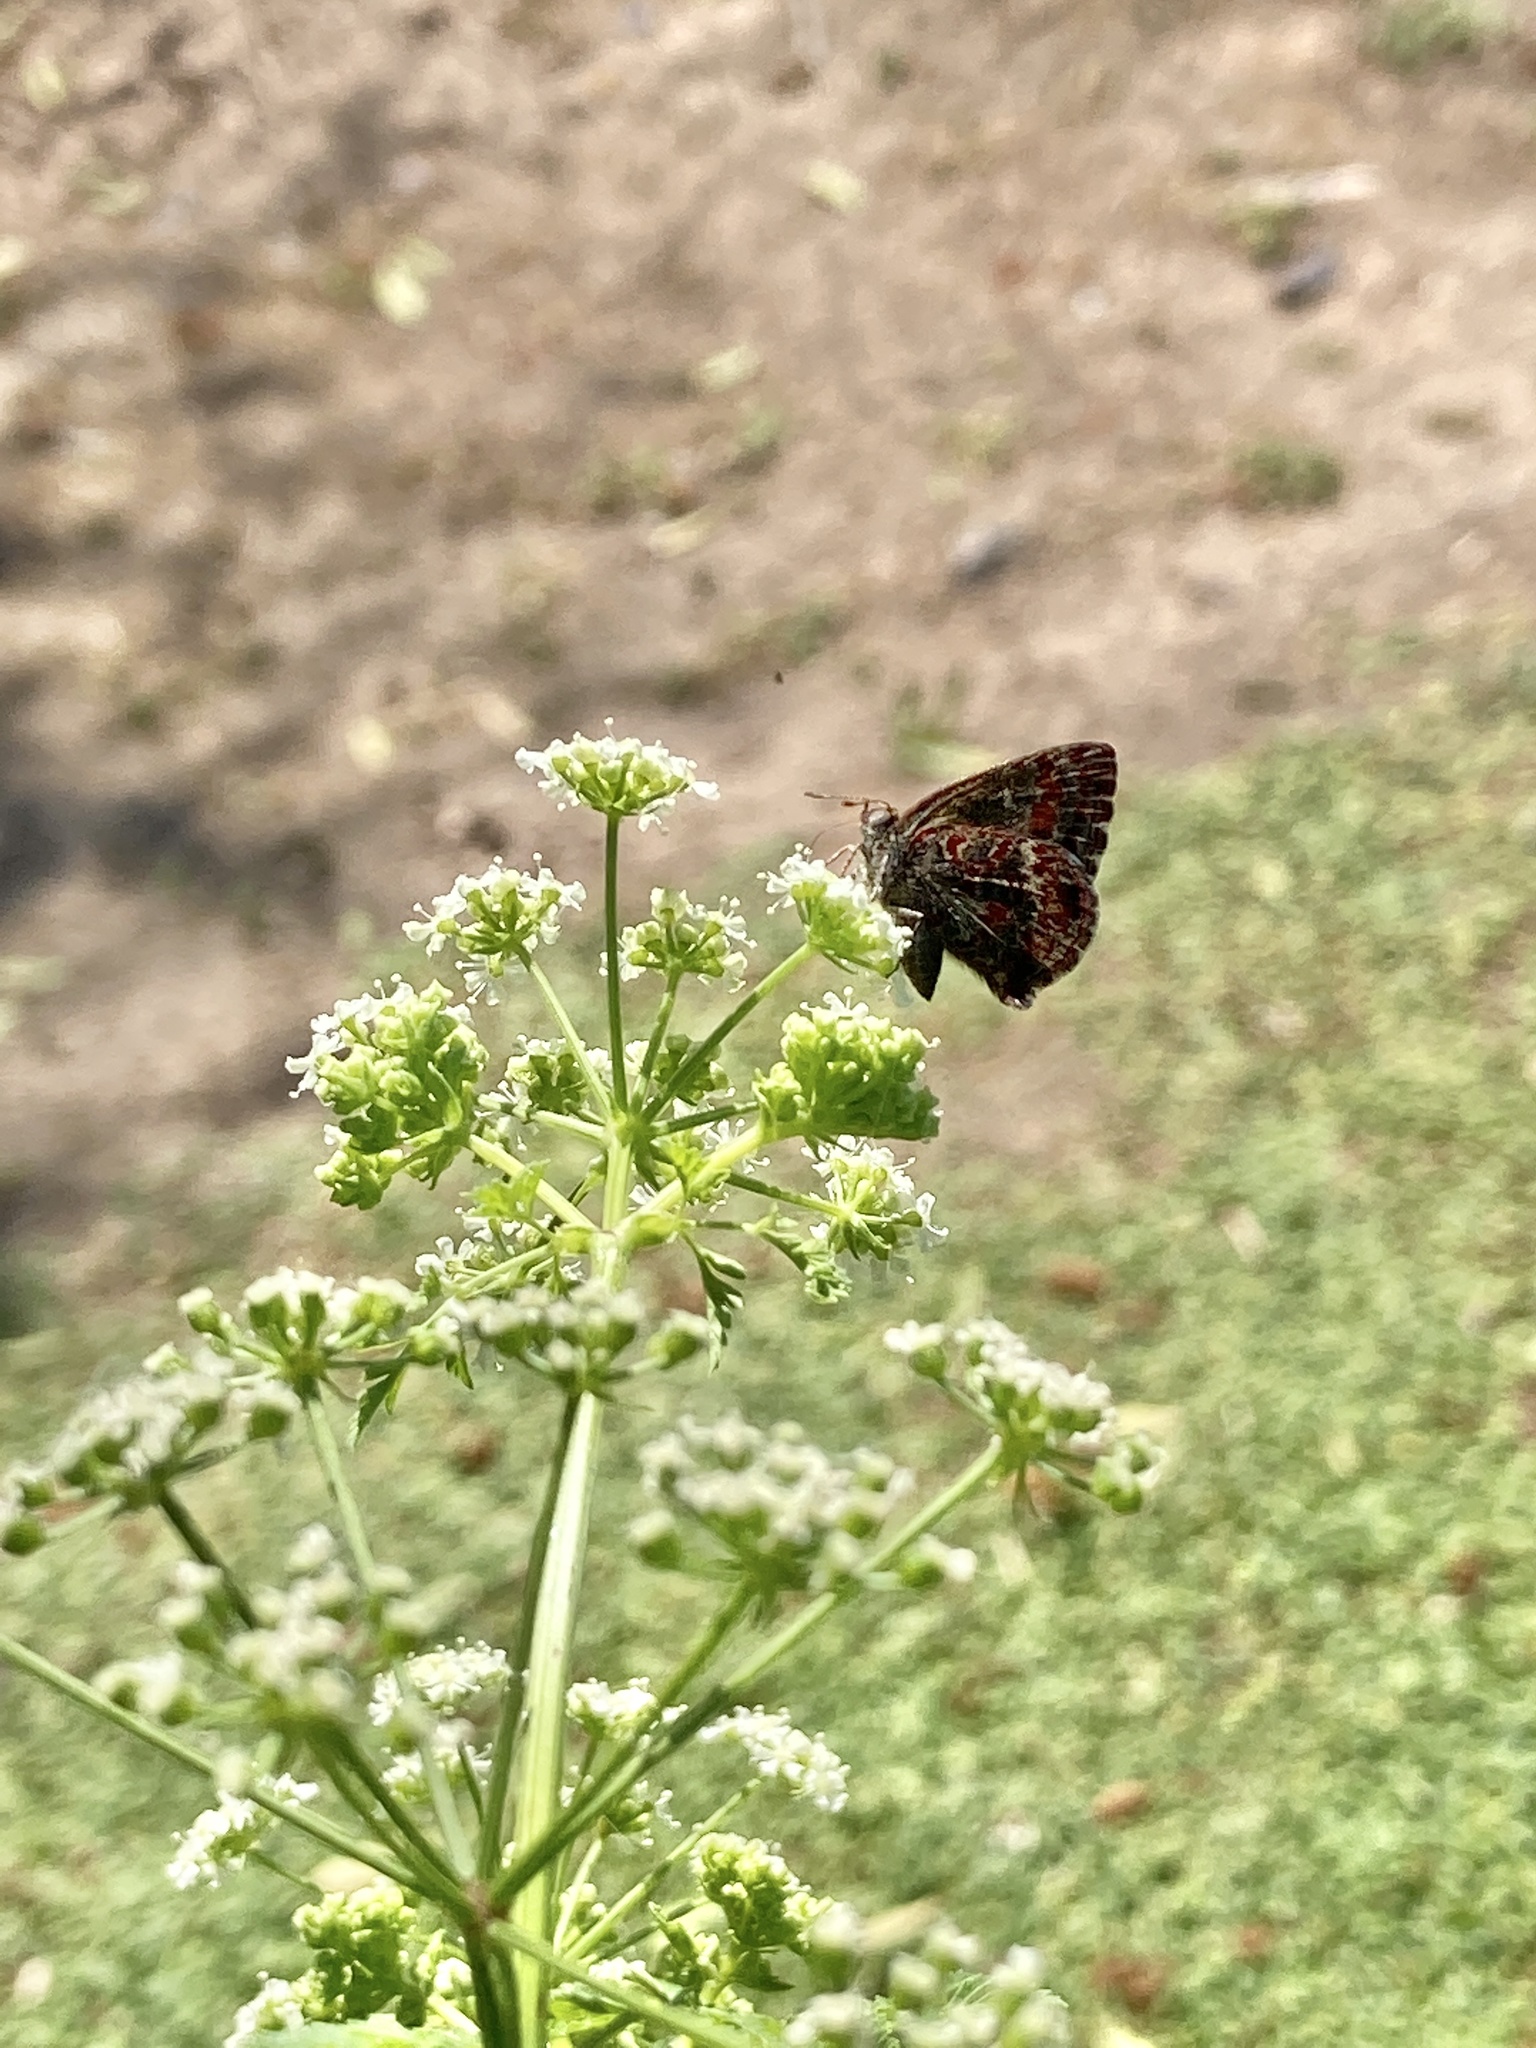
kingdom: Animalia
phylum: Arthropoda
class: Insecta
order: Lepidoptera
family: Lycaenidae
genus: Ministrymon
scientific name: Ministrymon
